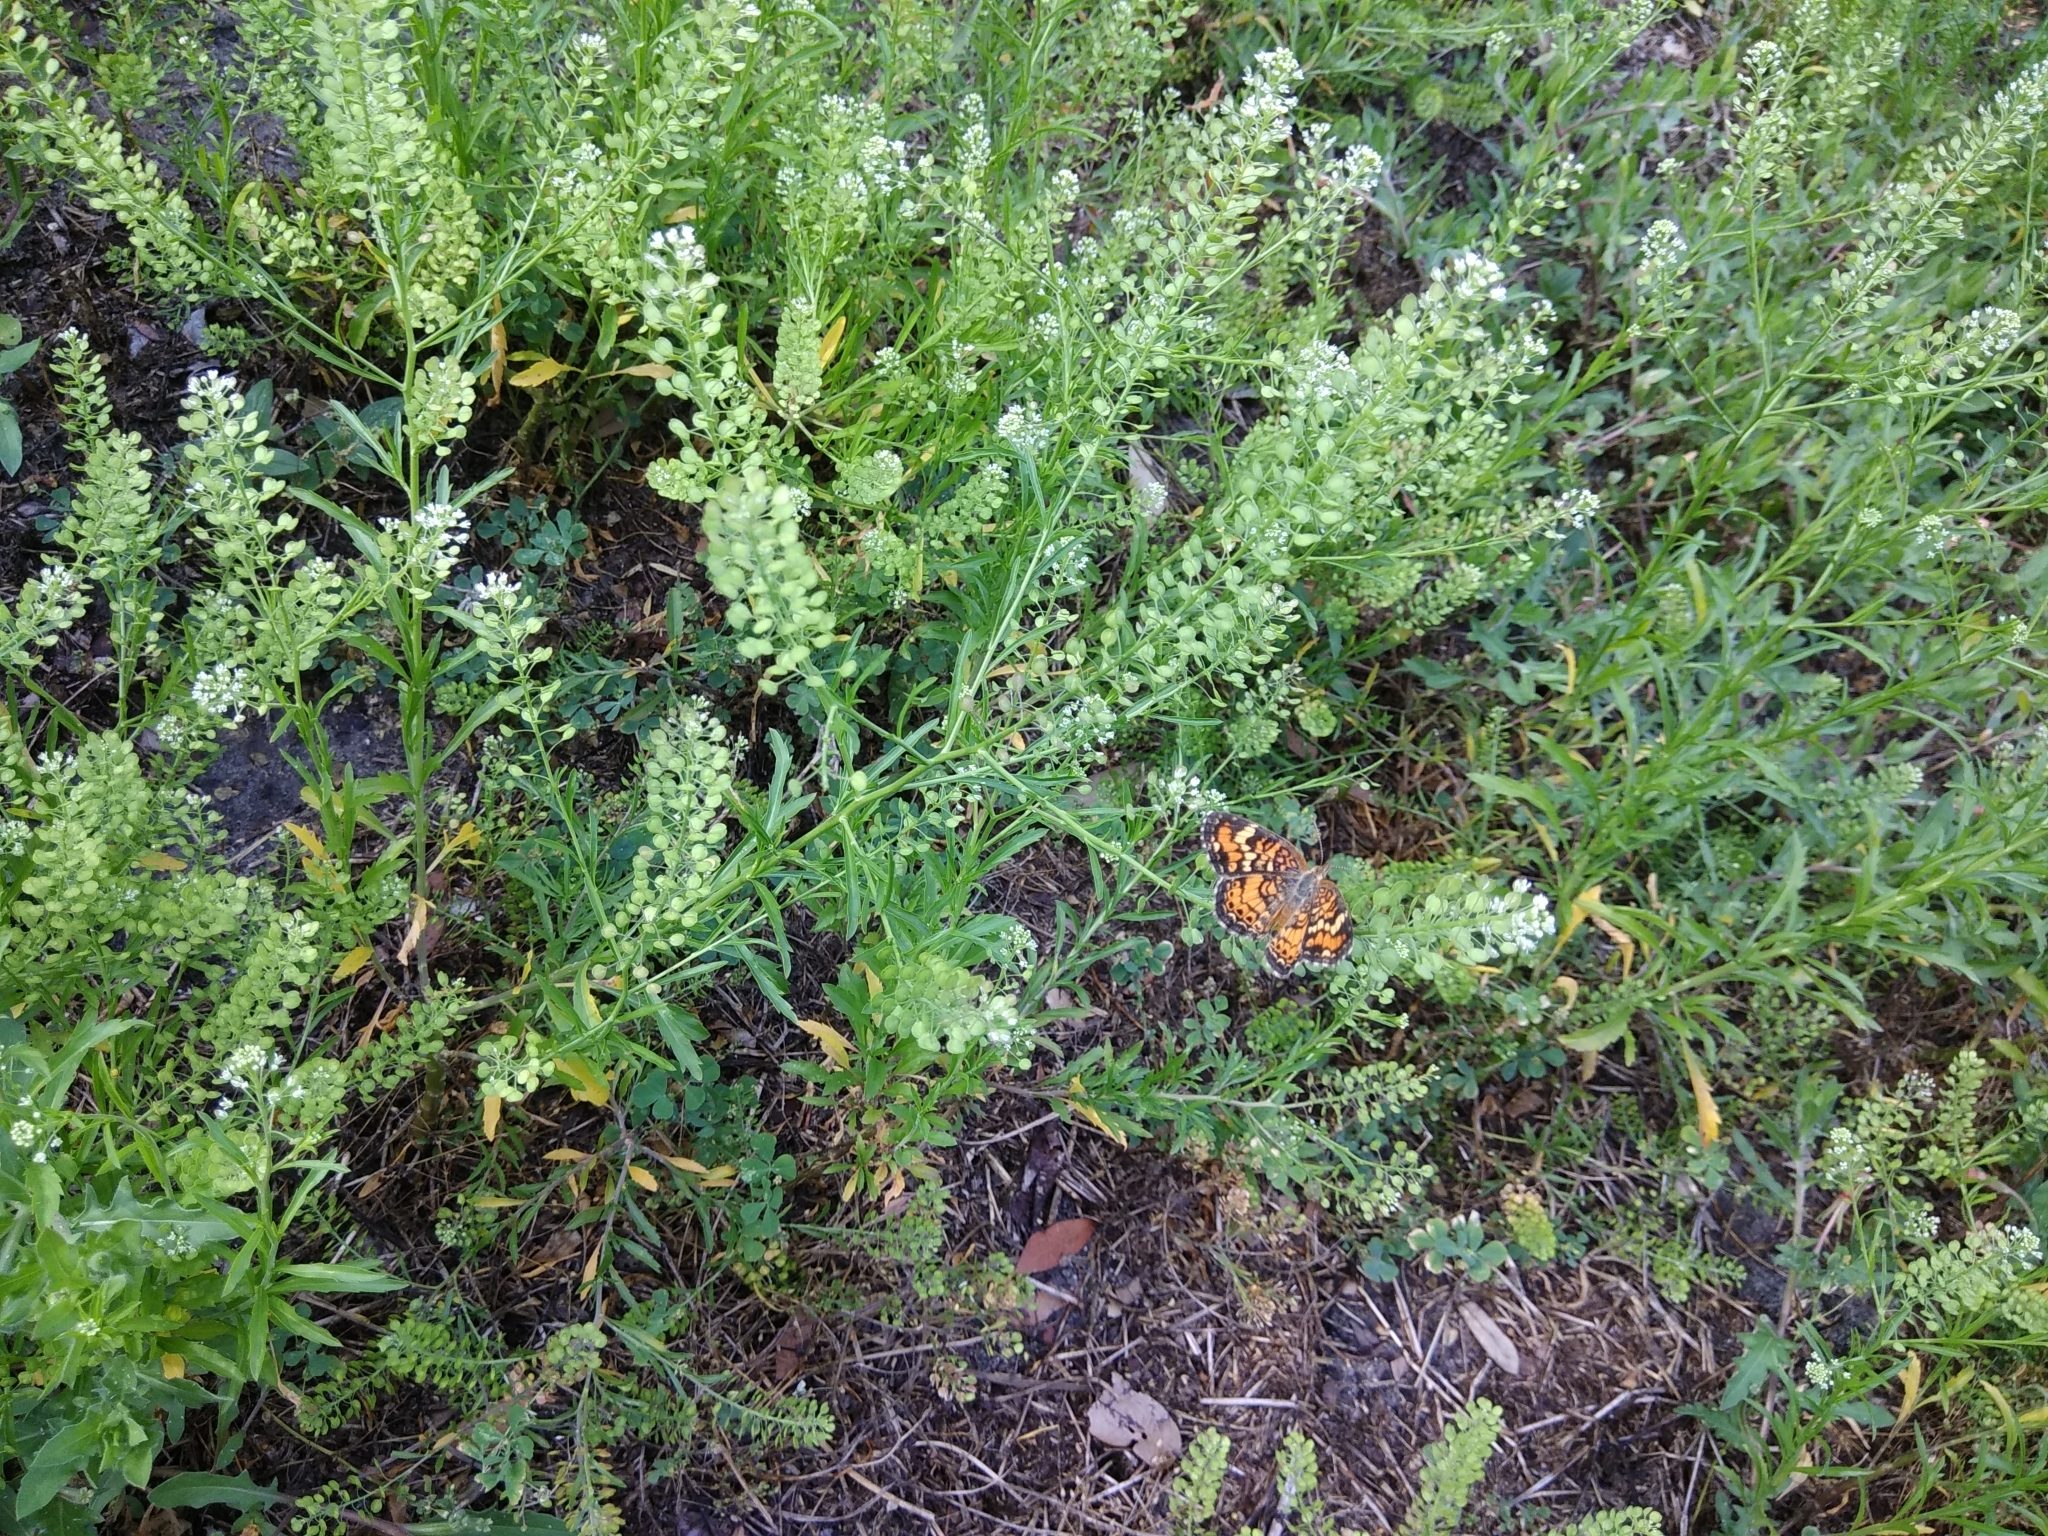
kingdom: Animalia
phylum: Arthropoda
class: Insecta
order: Lepidoptera
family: Nymphalidae
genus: Phyciodes
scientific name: Phyciodes phaon
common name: Phaon crescent
